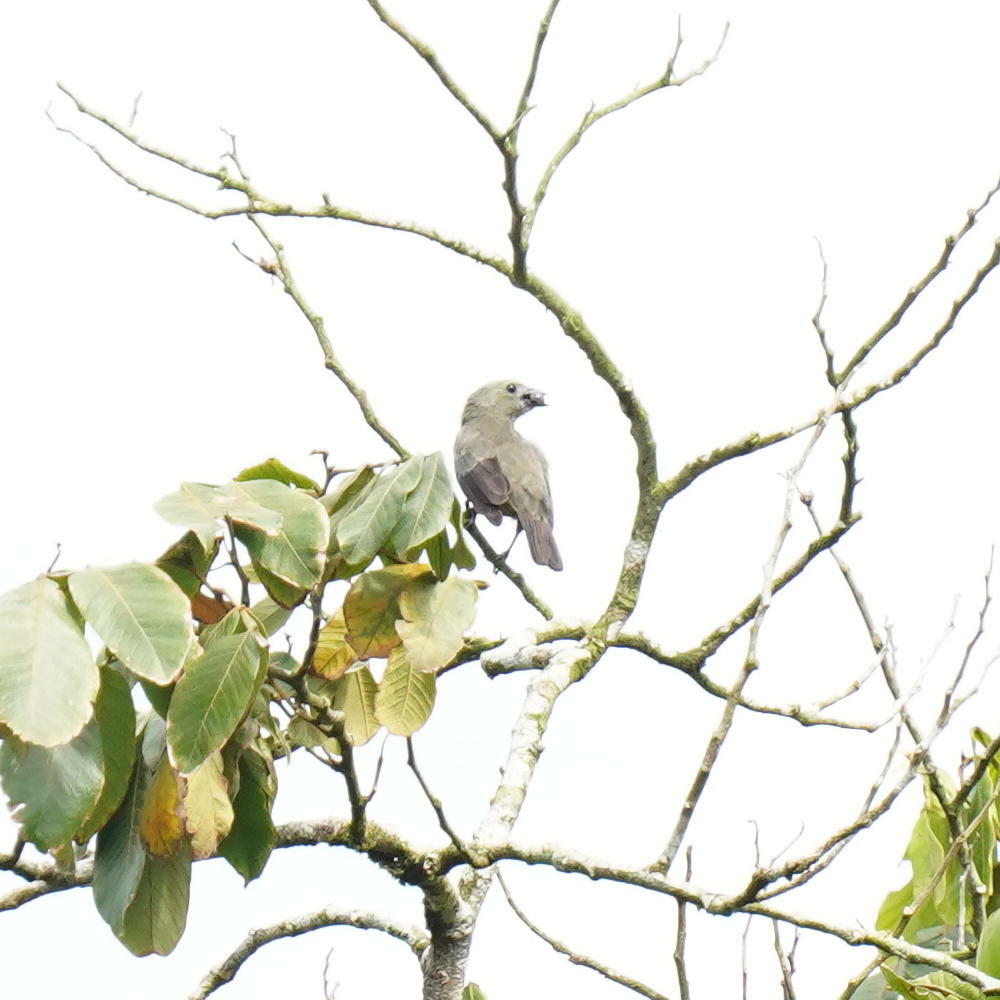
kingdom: Animalia
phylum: Chordata
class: Aves
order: Passeriformes
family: Thraupidae
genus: Thraupis
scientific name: Thraupis palmarum
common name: Palm tanager
